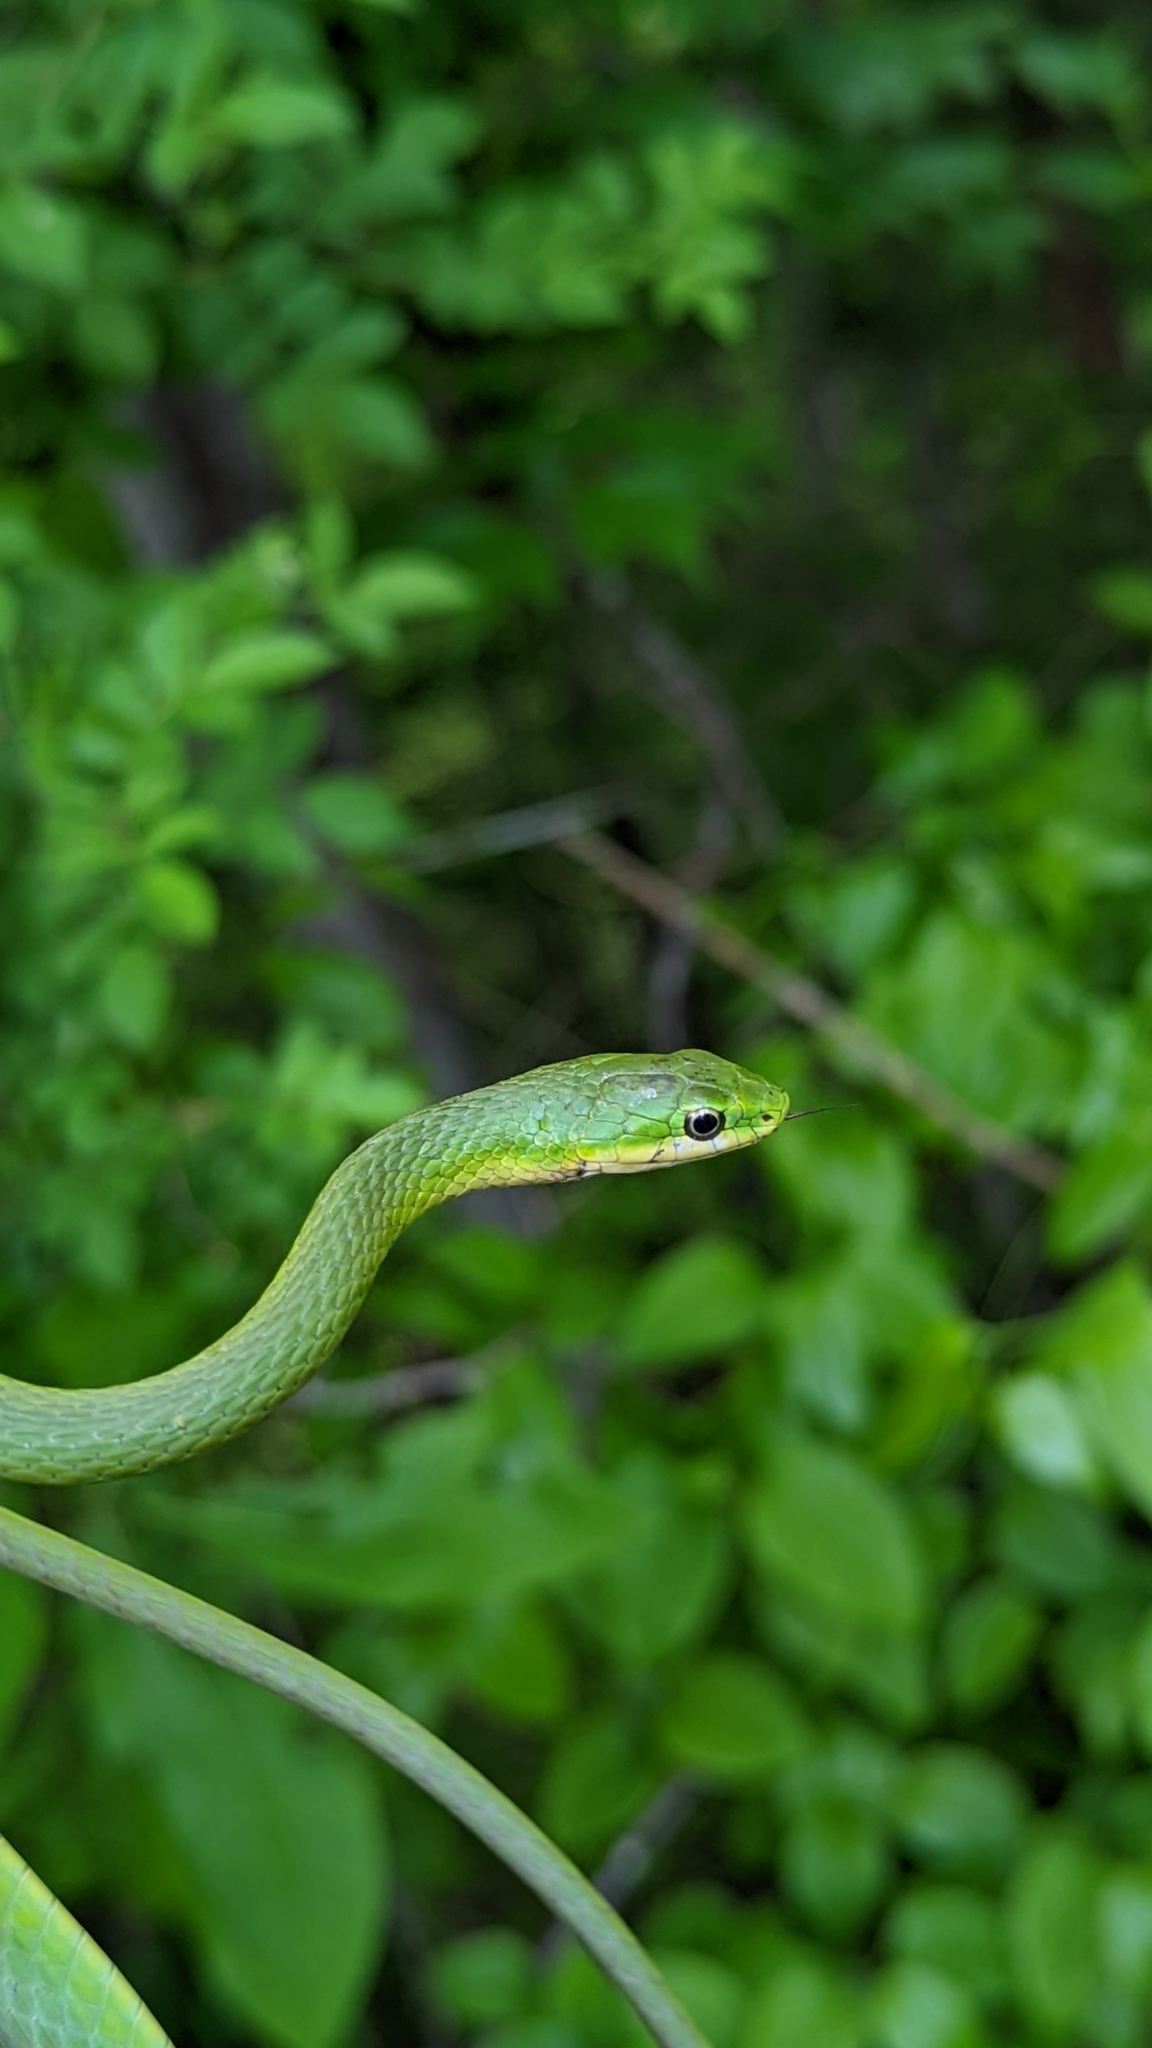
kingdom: Animalia
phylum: Chordata
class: Squamata
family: Colubridae
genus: Opheodrys
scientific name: Opheodrys aestivus
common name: Rough greensnake
